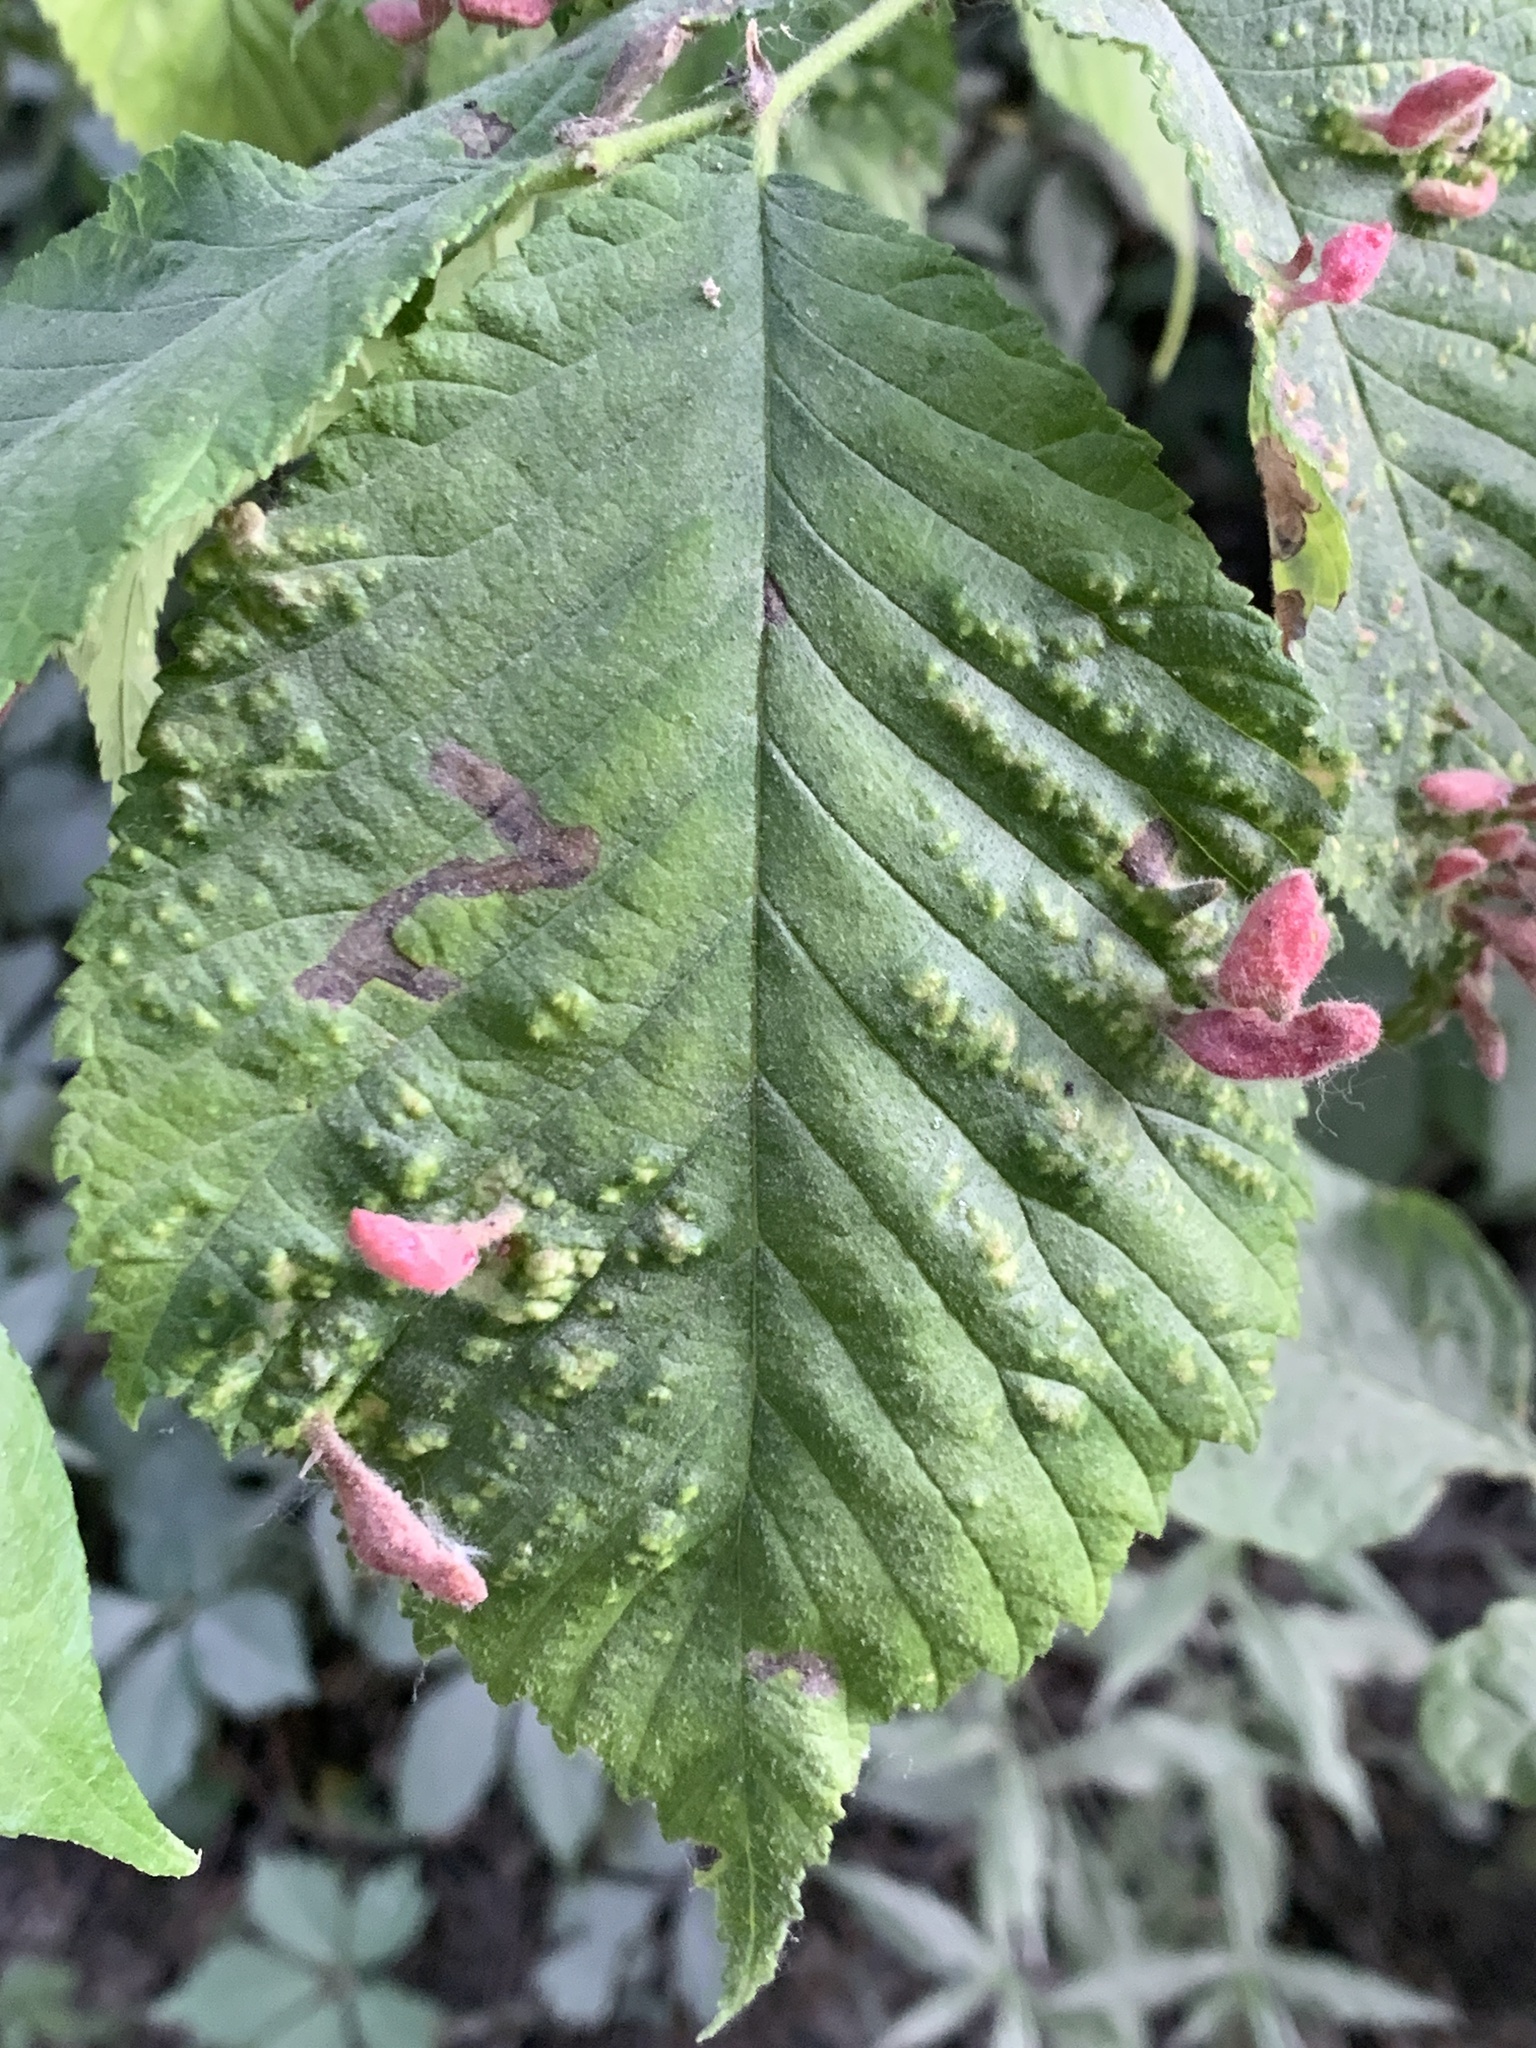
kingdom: Animalia
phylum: Arthropoda
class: Insecta
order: Hemiptera
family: Aphididae
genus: Tetraneura
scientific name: Tetraneura nigriabdominalis
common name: Aphid
